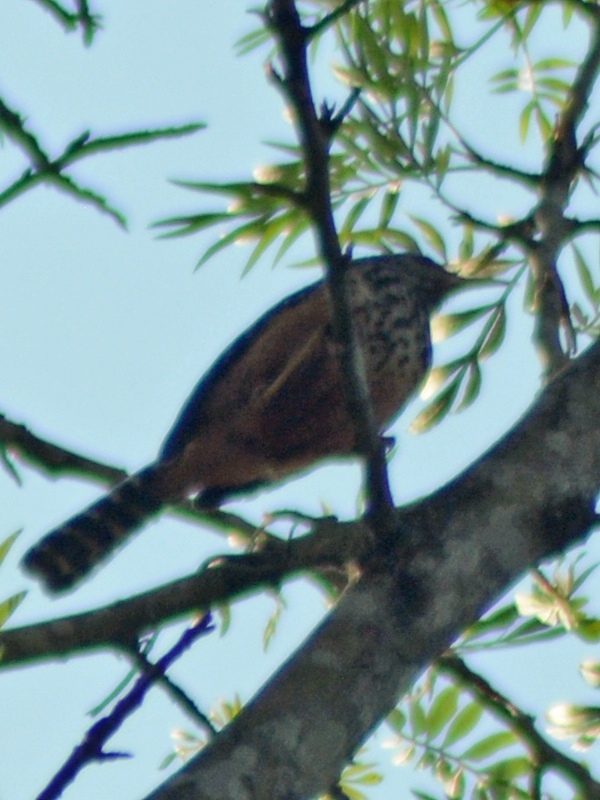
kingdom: Animalia
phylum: Chordata
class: Aves
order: Passeriformes
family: Troglodytidae
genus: Campylorhynchus
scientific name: Campylorhynchus zonatus
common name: Band-backed wren
